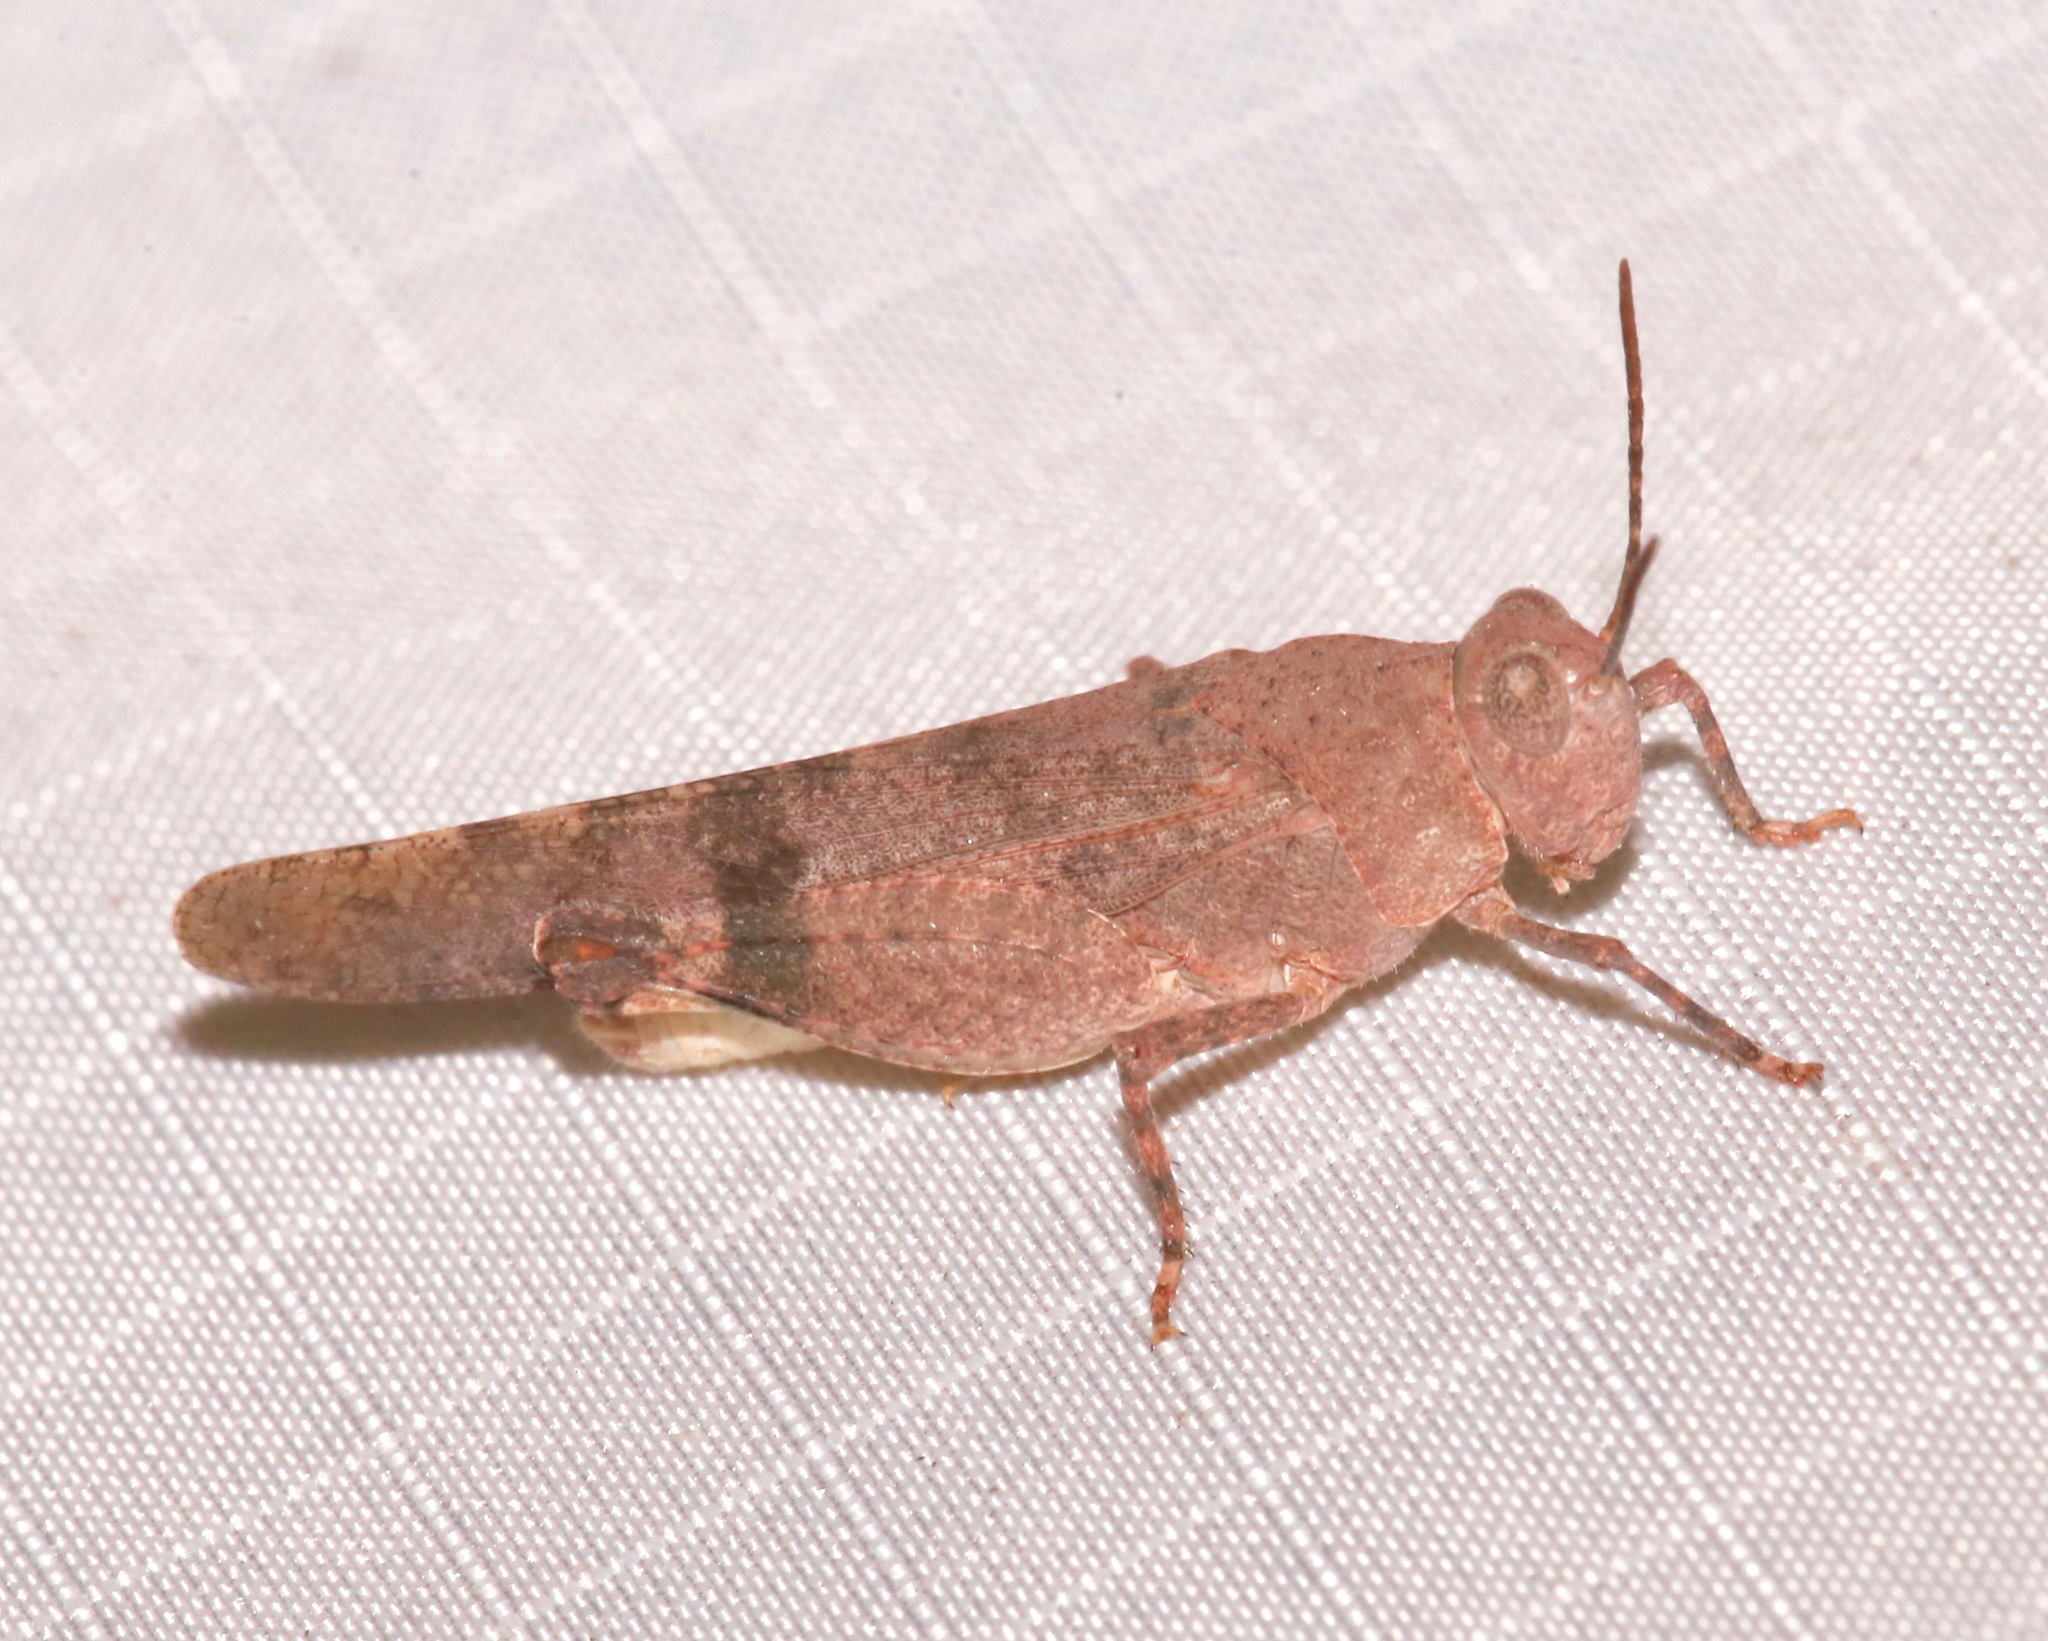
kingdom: Animalia
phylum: Arthropoda
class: Insecta
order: Orthoptera
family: Acrididae
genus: Lactista
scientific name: Lactista azteca
